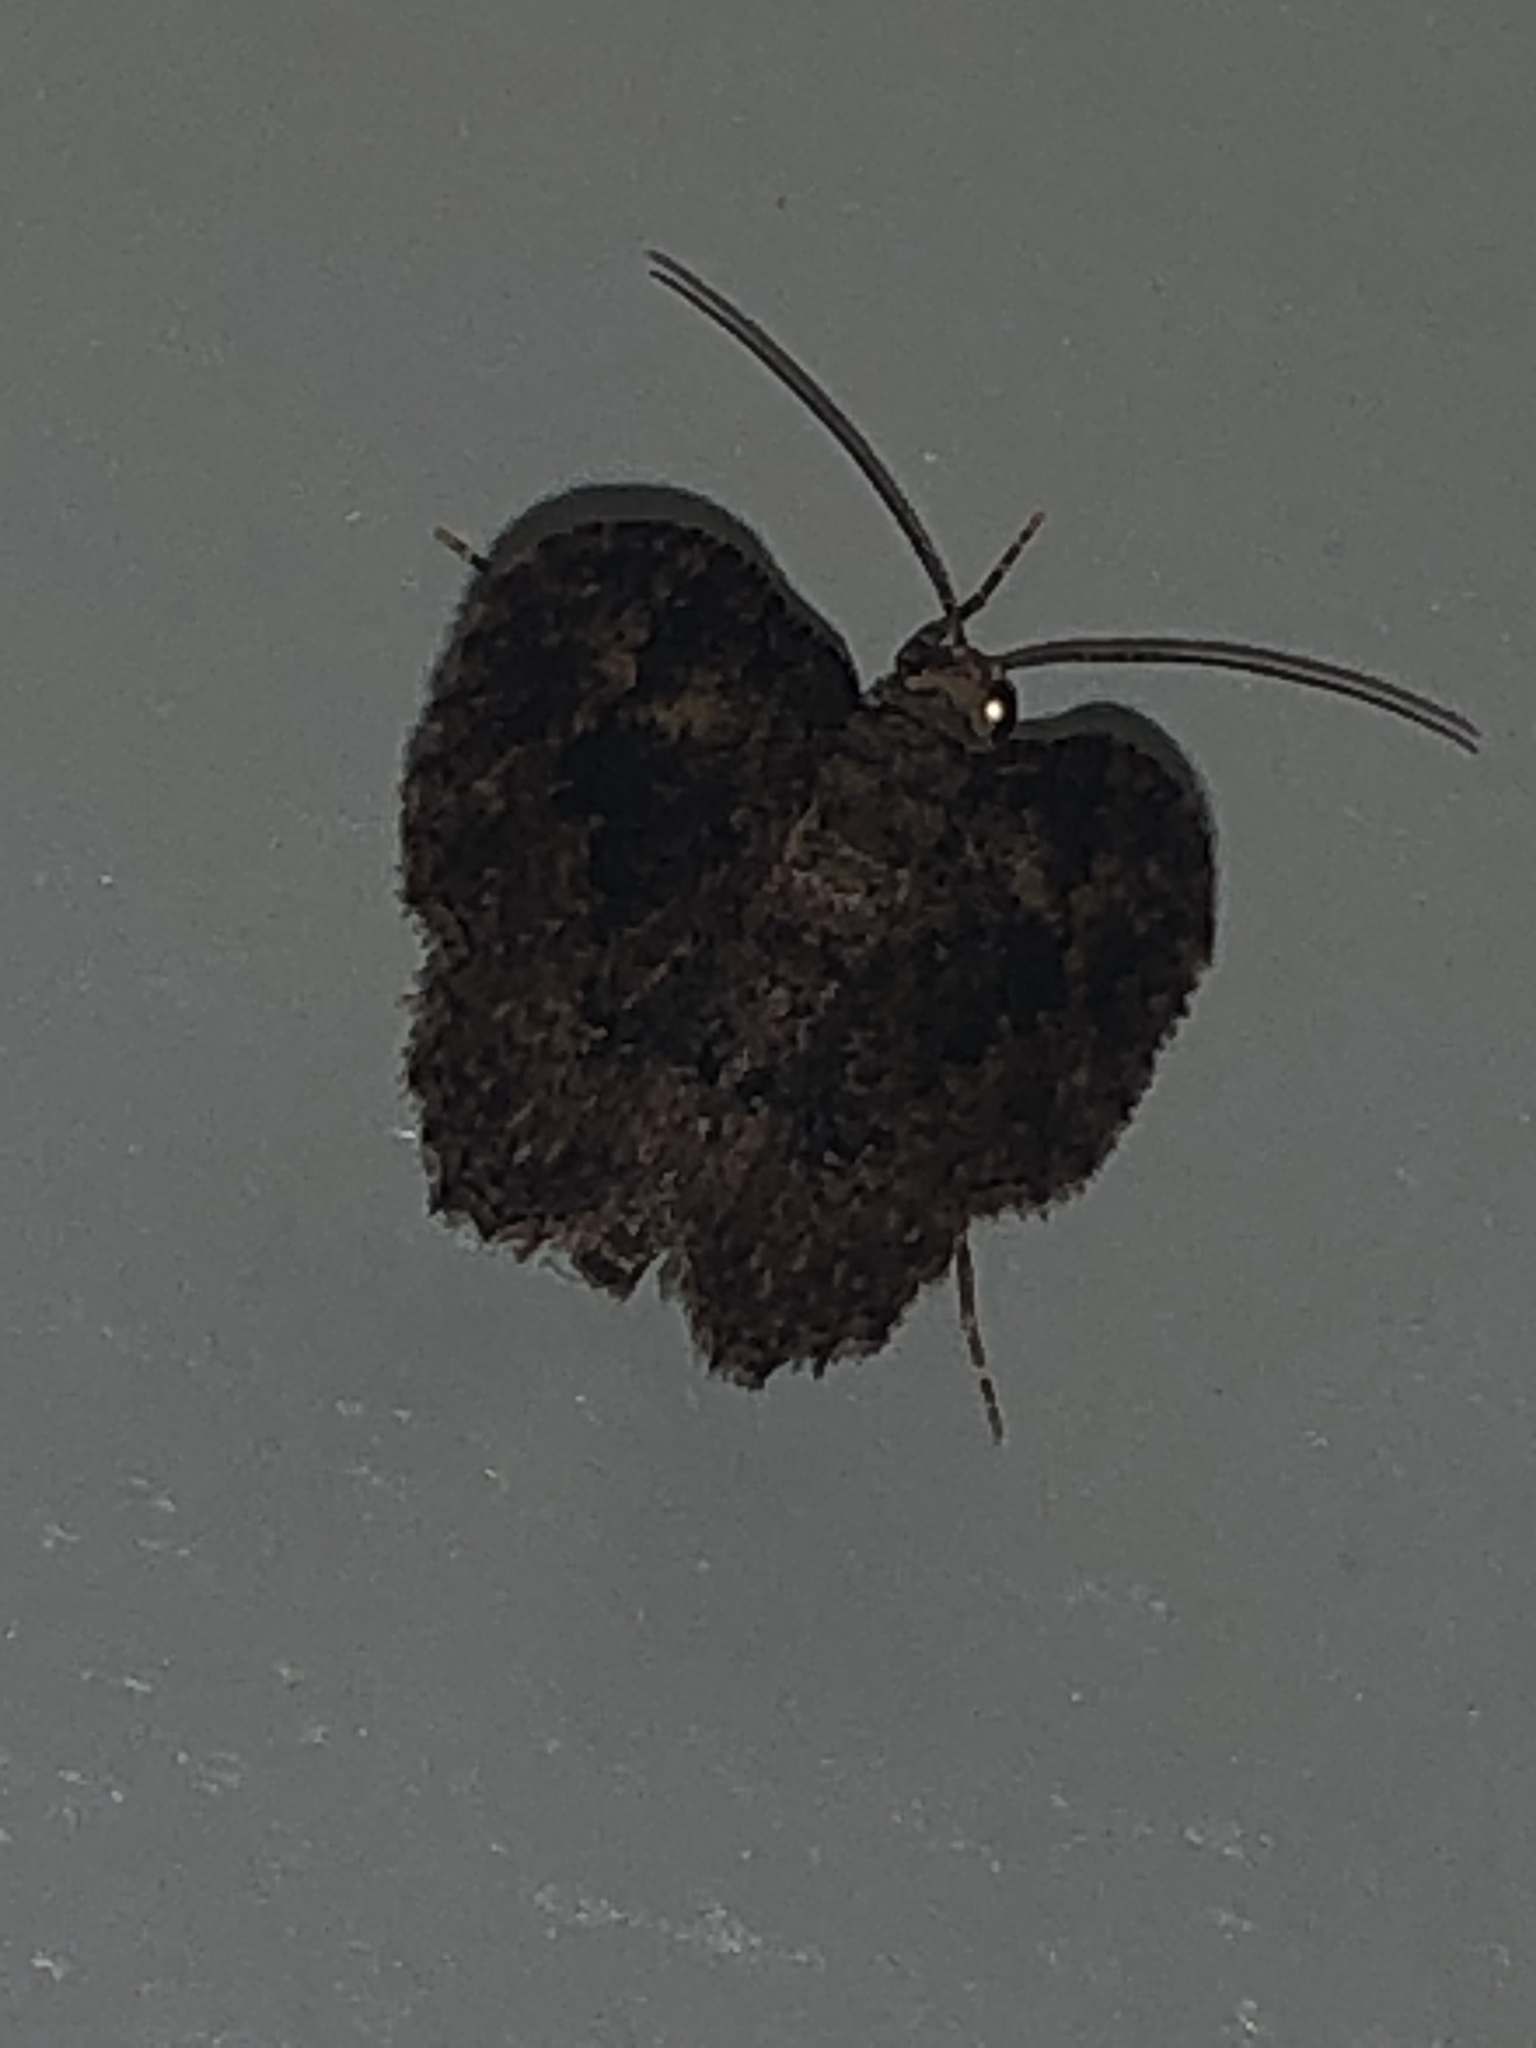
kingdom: Animalia
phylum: Arthropoda
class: Insecta
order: Lepidoptera
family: Geometridae
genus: Disclisioprocta
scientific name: Disclisioprocta stellata
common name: Somber carpet
